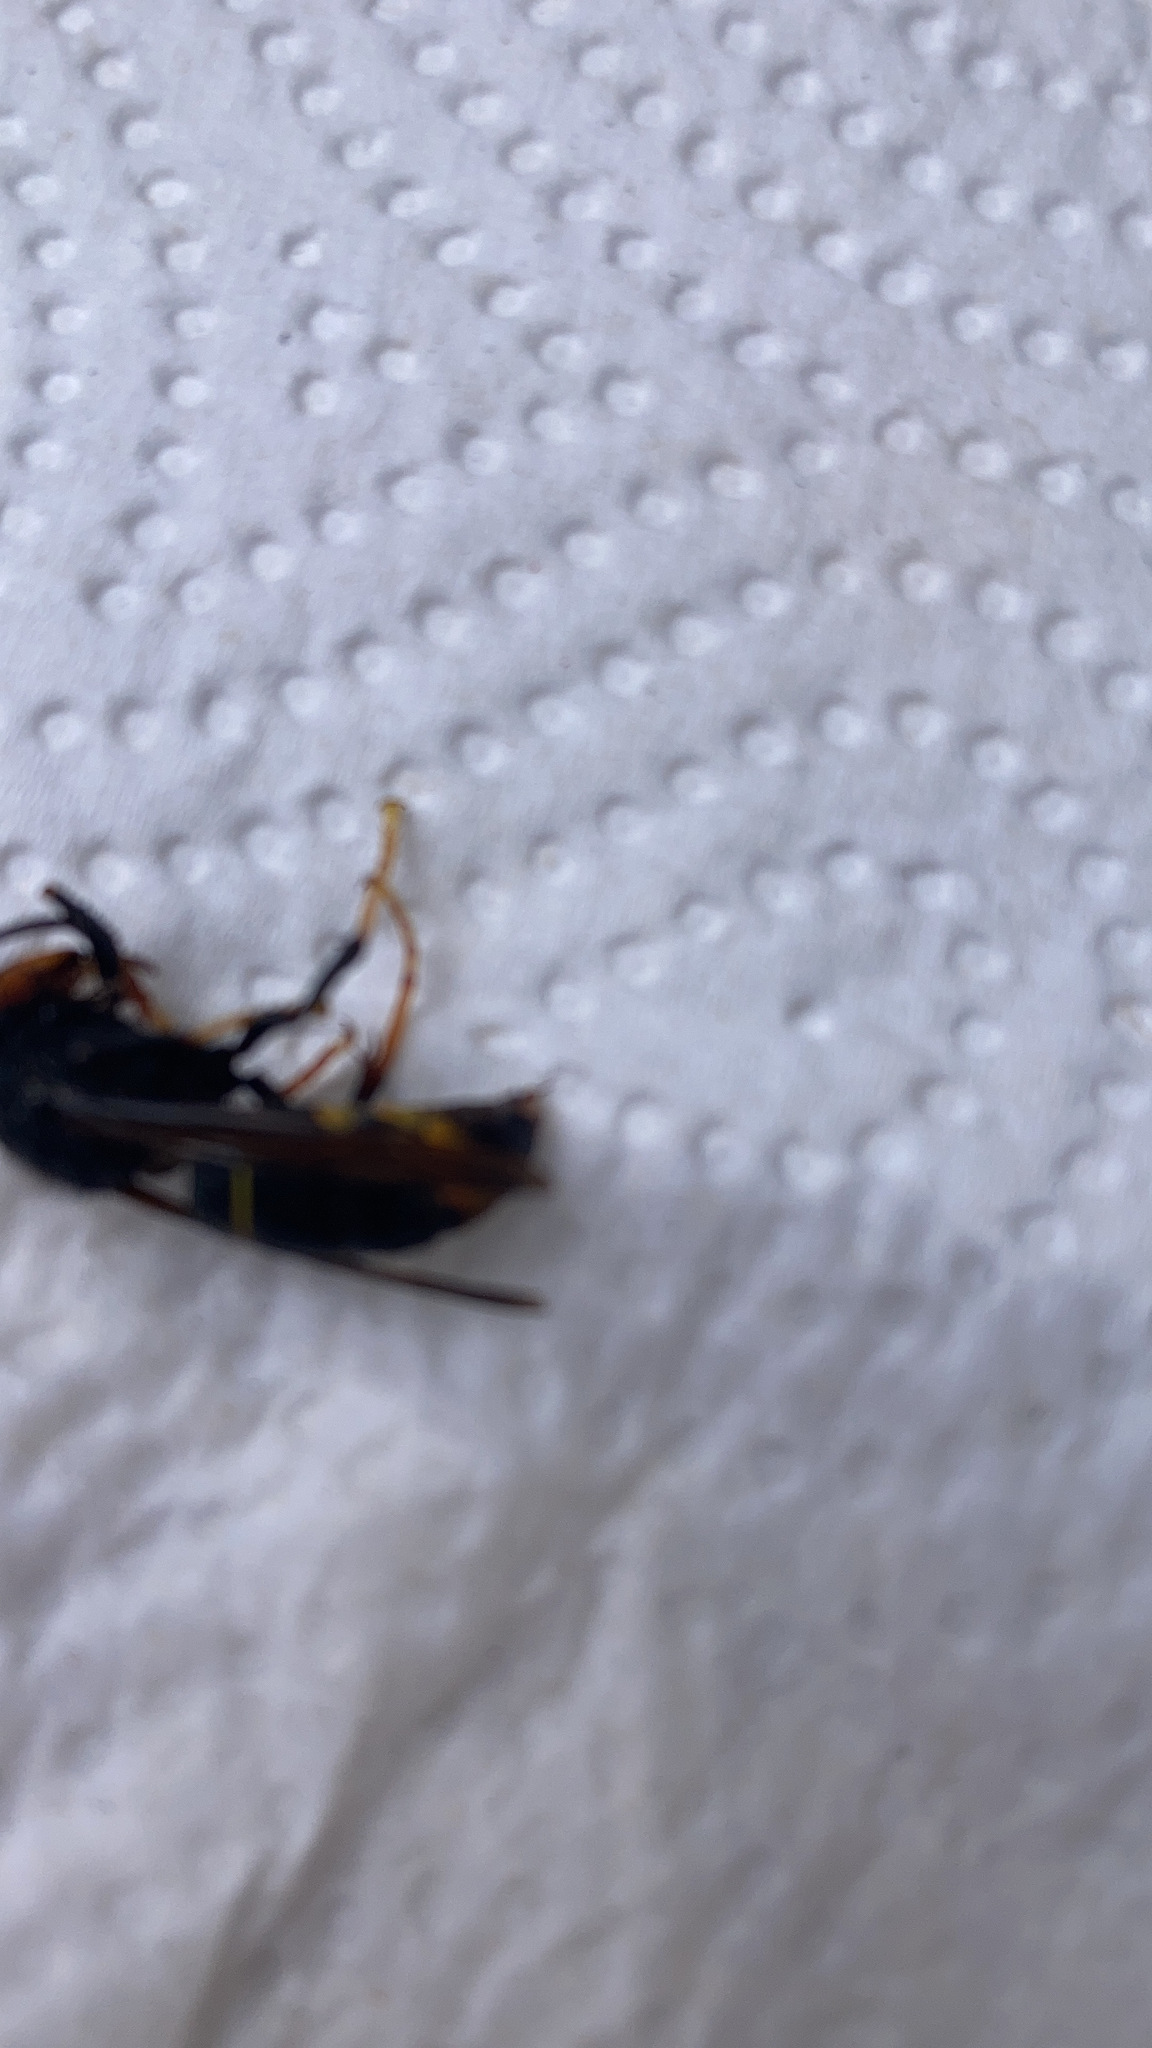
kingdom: Animalia
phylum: Arthropoda
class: Insecta
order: Hymenoptera
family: Vespidae
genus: Vespa
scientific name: Vespa velutina
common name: Asian hornet
